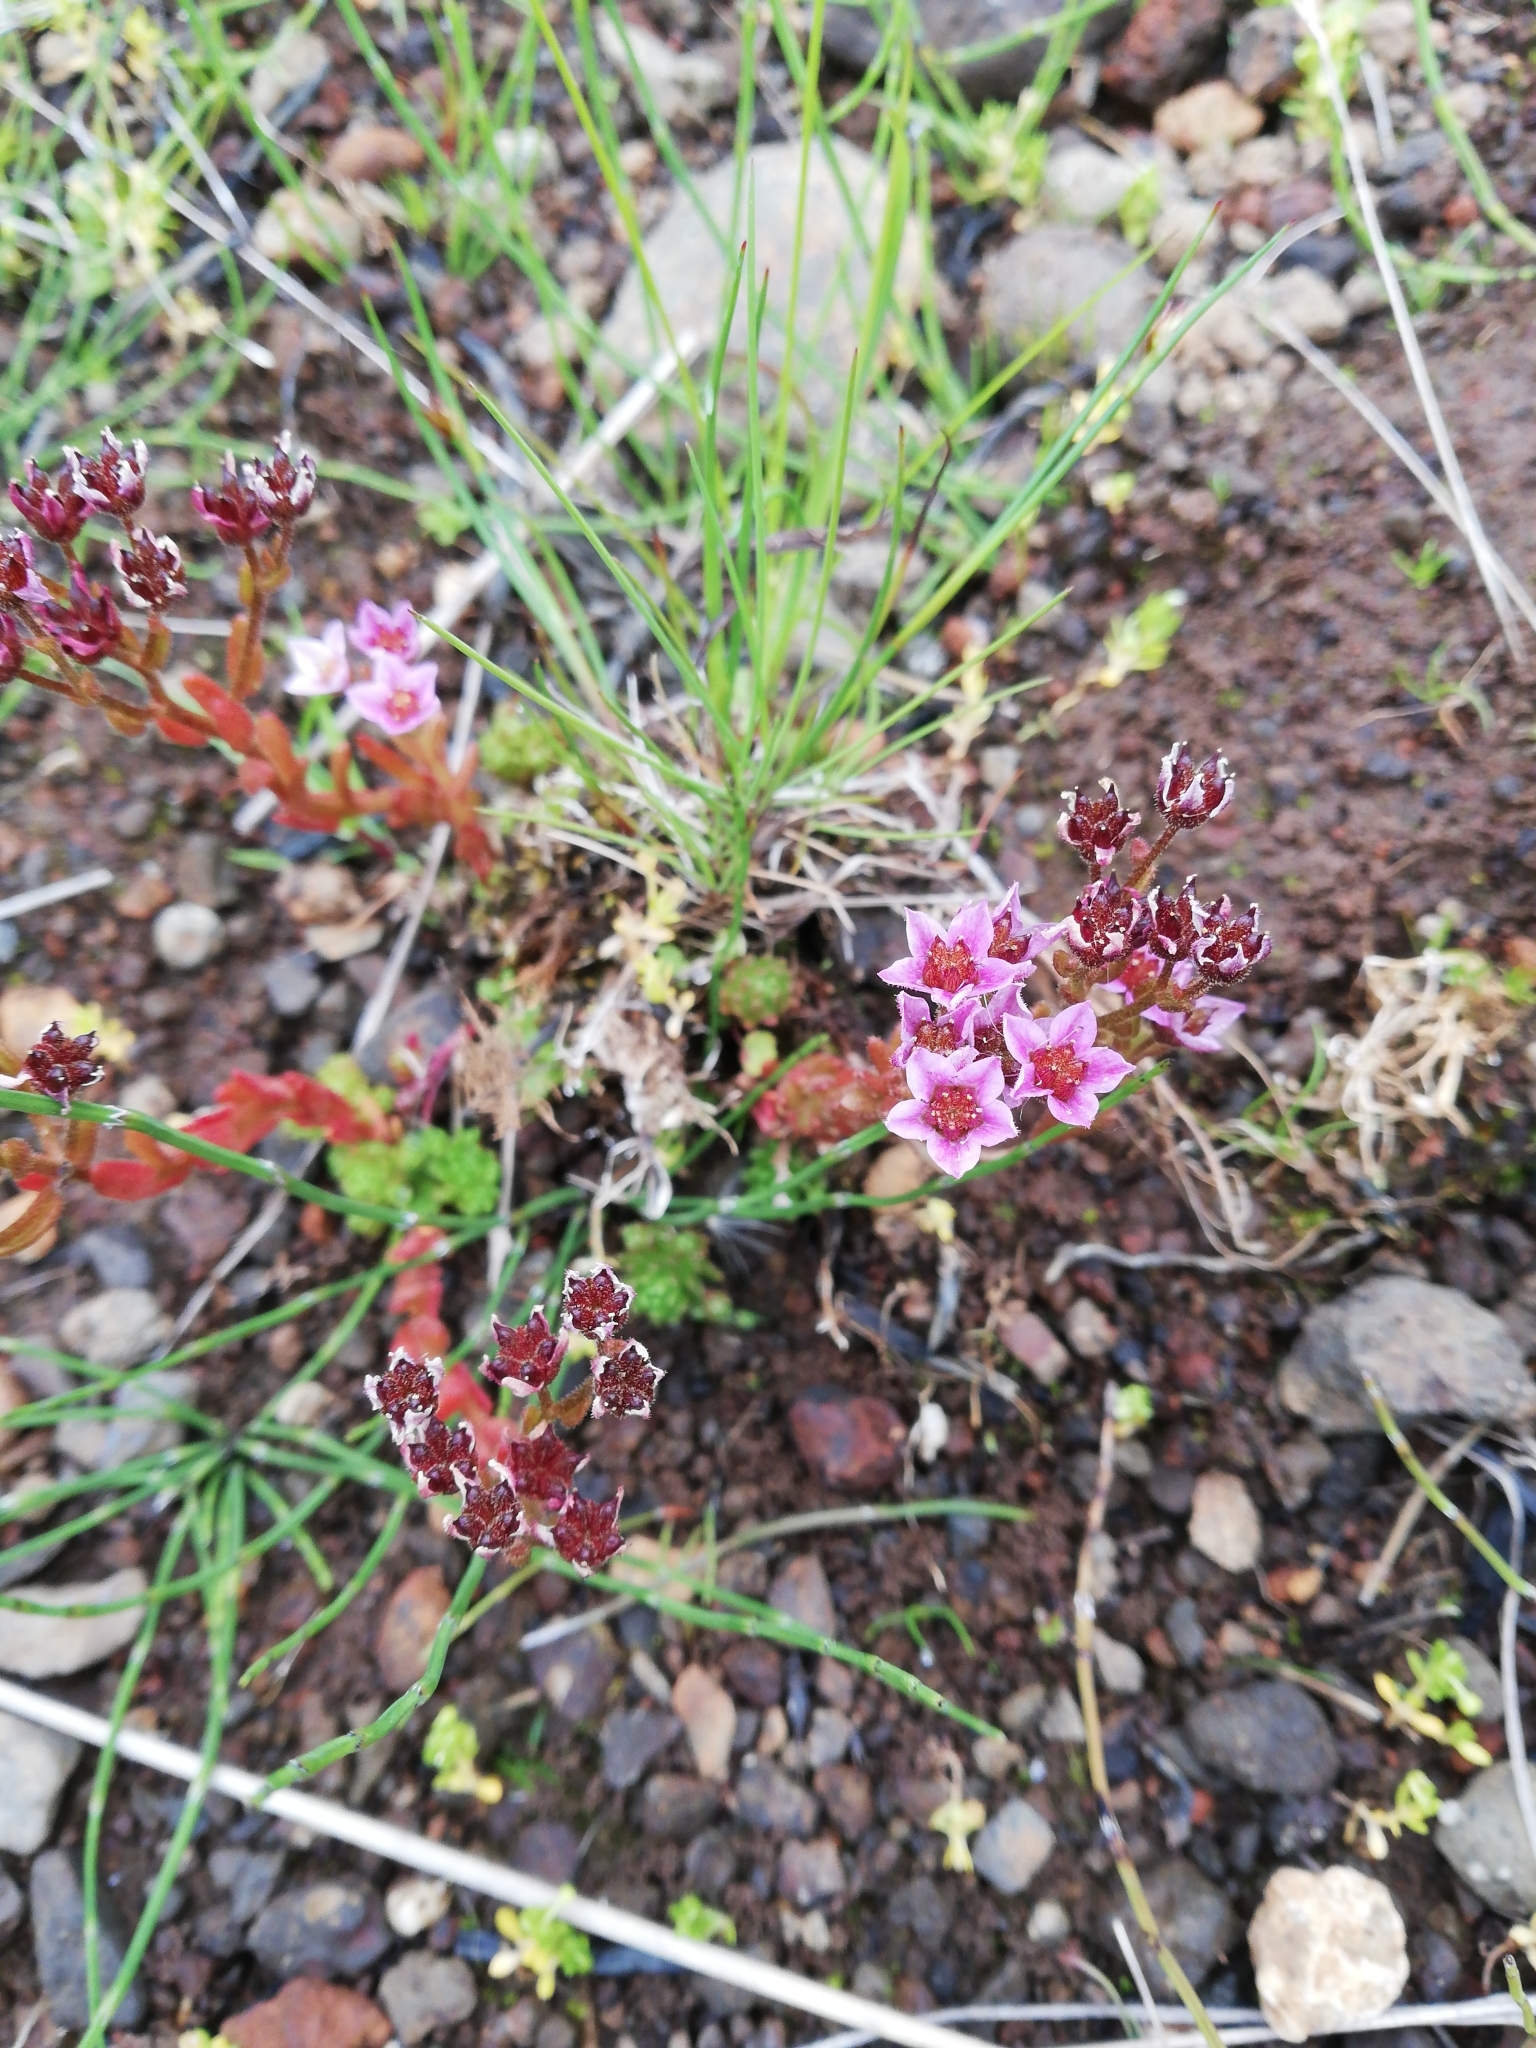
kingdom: Plantae
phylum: Tracheophyta
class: Magnoliopsida
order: Saxifragales
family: Crassulaceae
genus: Sedum
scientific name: Sedum villosum
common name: Hairy stonecrop
